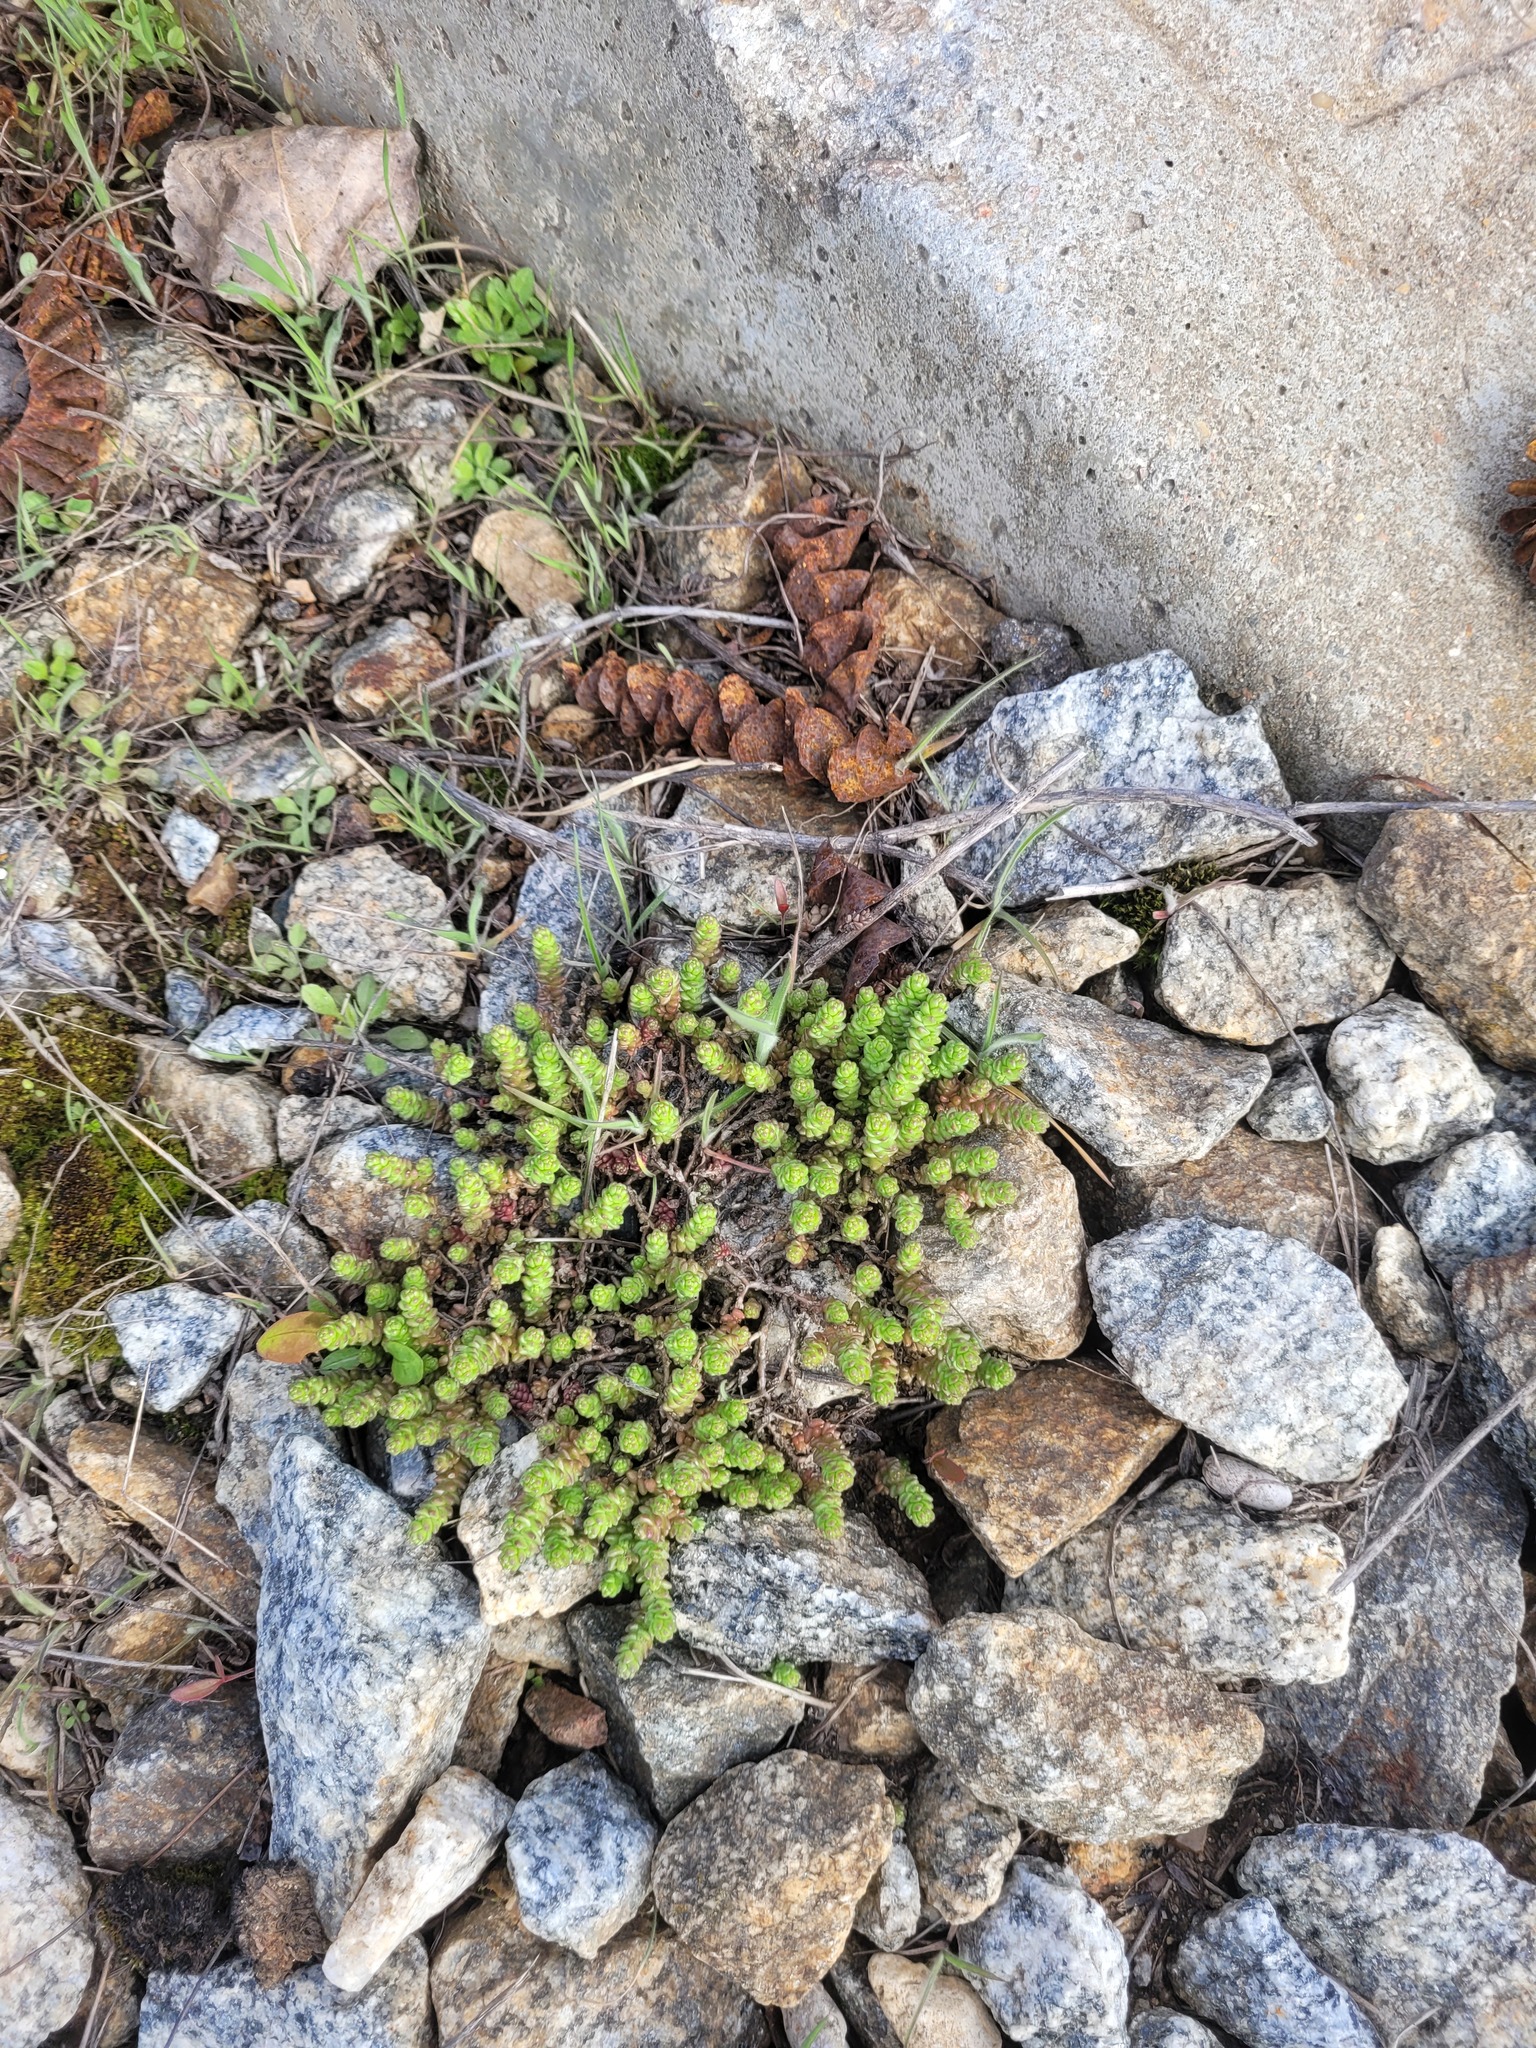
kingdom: Plantae
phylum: Tracheophyta
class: Magnoliopsida
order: Saxifragales
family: Crassulaceae
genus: Sedum
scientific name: Sedum acre
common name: Biting stonecrop
